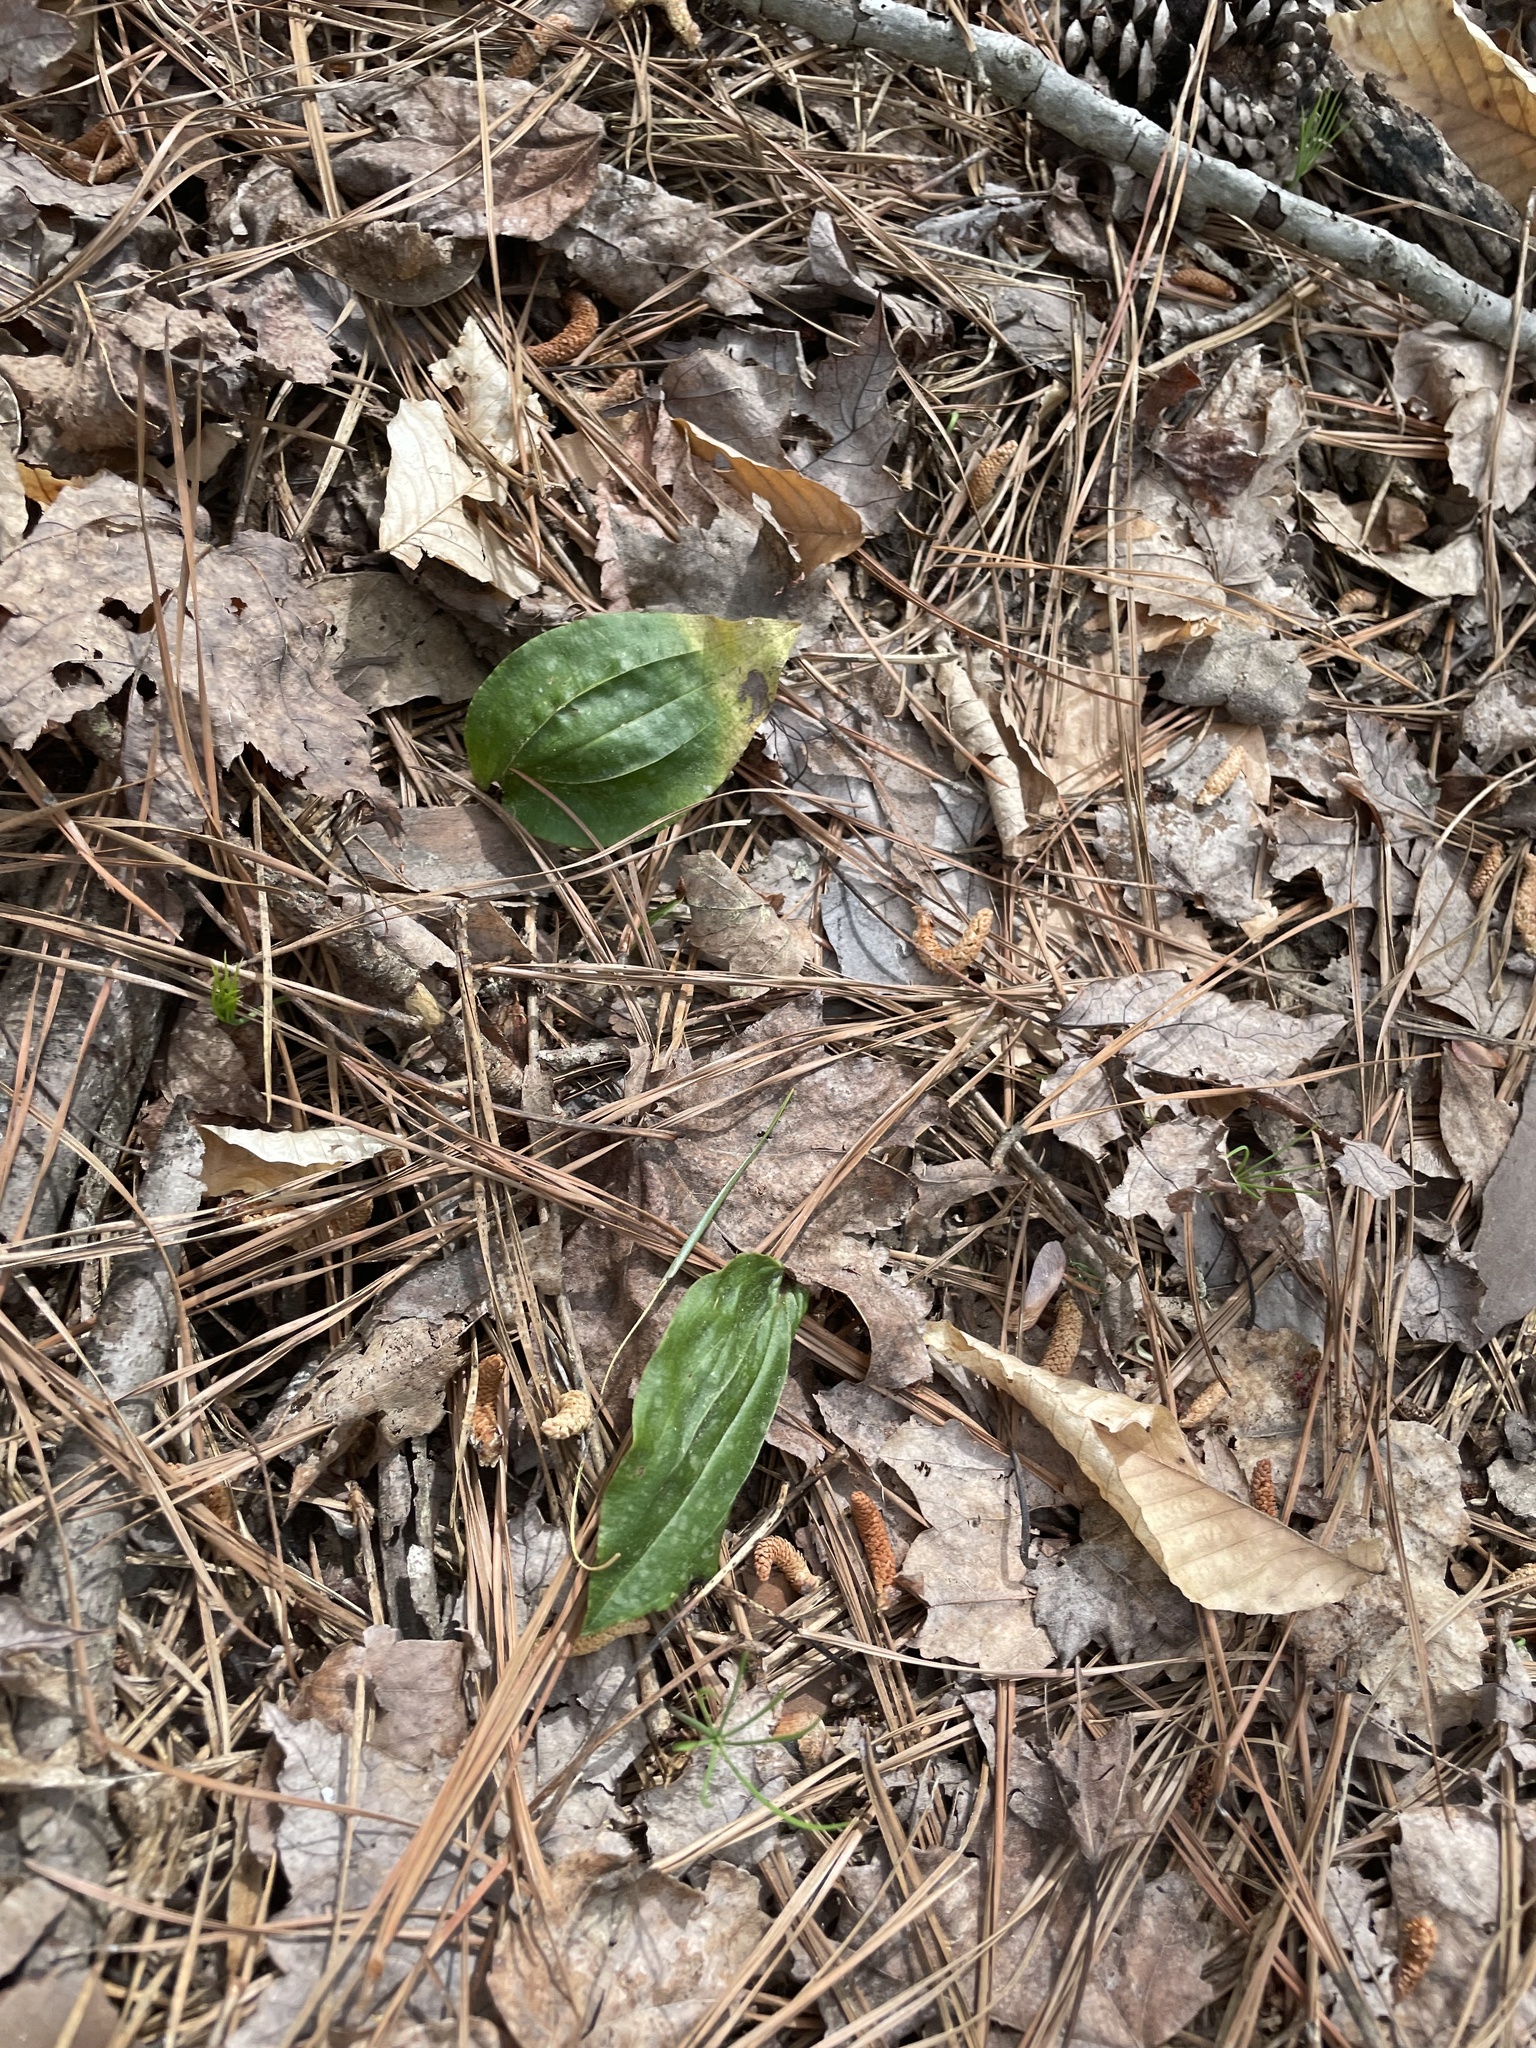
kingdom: Plantae
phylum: Tracheophyta
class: Liliopsida
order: Asparagales
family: Orchidaceae
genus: Tipularia
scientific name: Tipularia discolor
